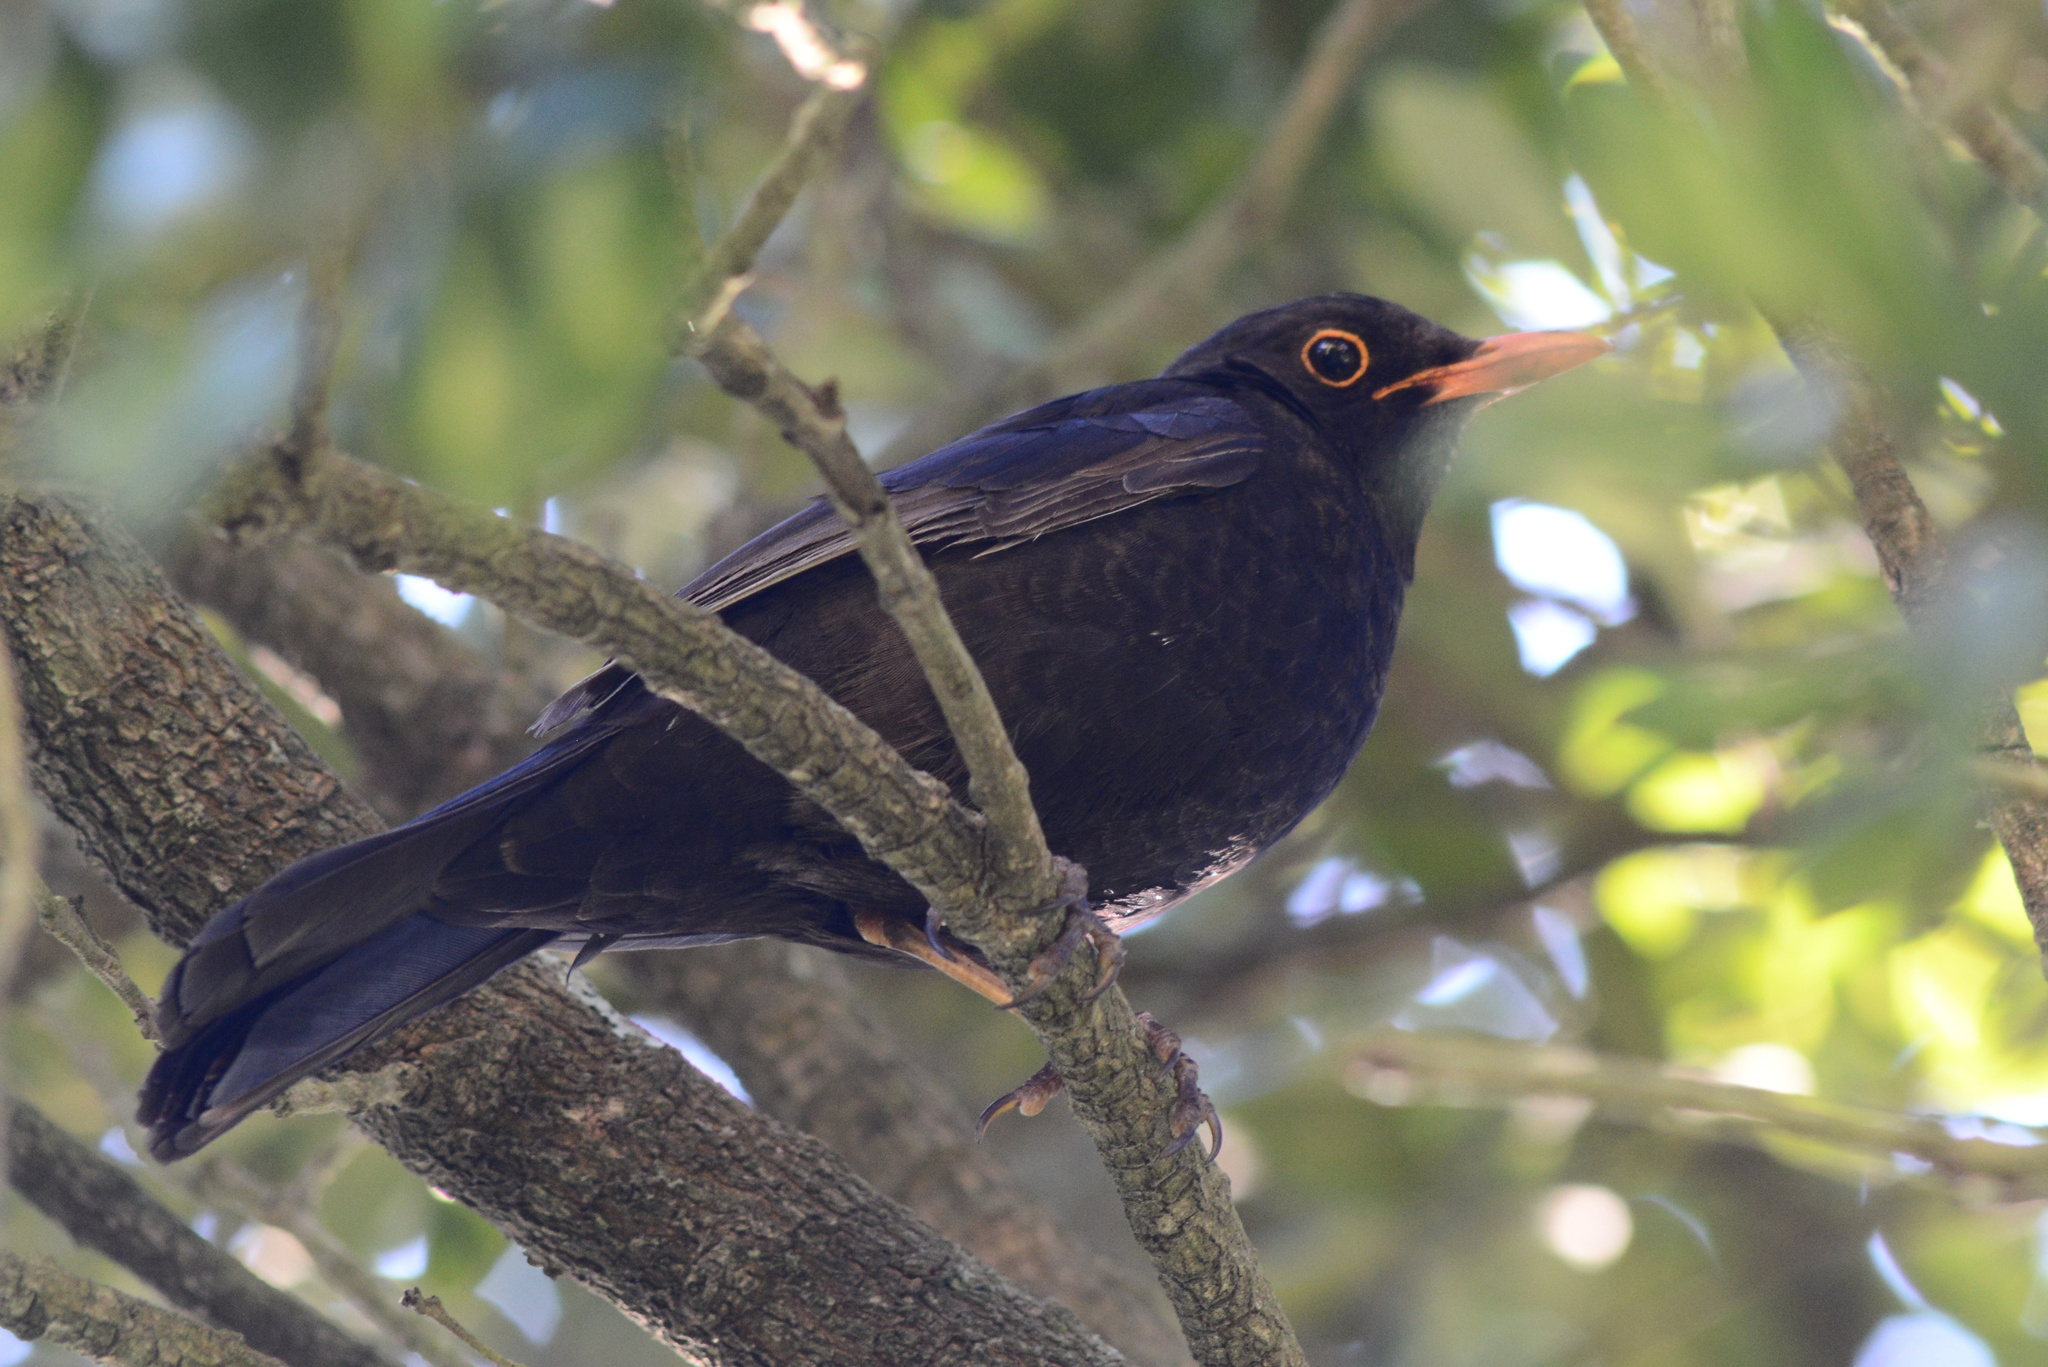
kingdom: Animalia
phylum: Chordata
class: Aves
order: Passeriformes
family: Turdidae
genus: Turdus
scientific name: Turdus merula
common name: Common blackbird
